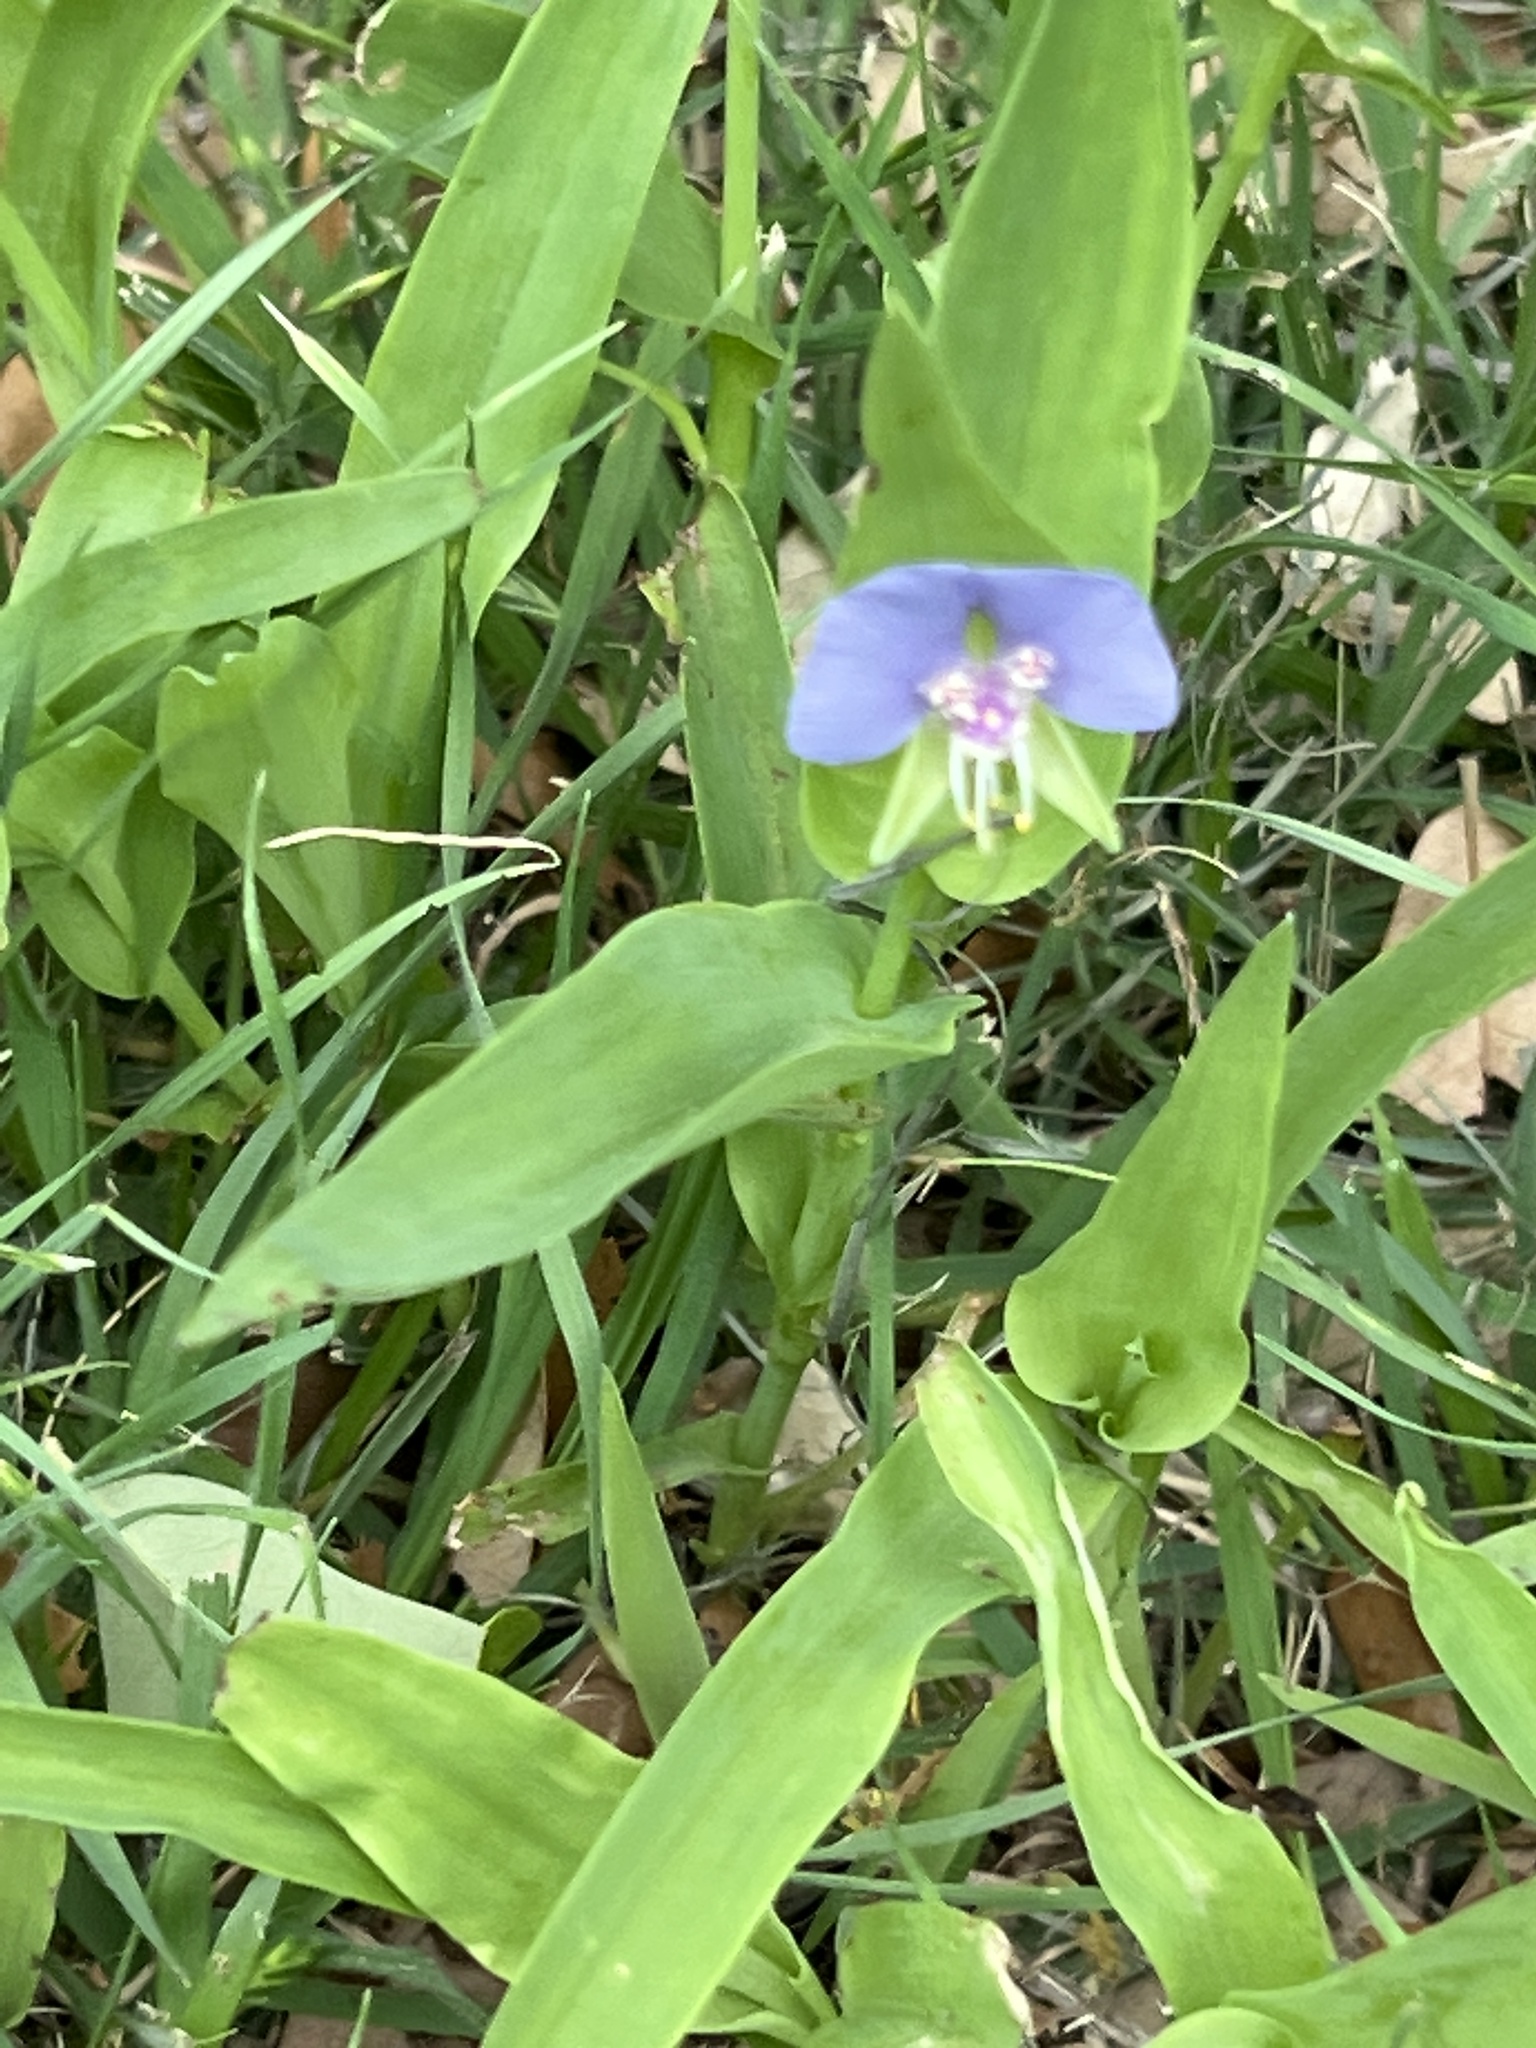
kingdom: Plantae
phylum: Tracheophyta
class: Liliopsida
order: Commelinales
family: Commelinaceae
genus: Tinantia
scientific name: Tinantia anomala
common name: False dayflower
